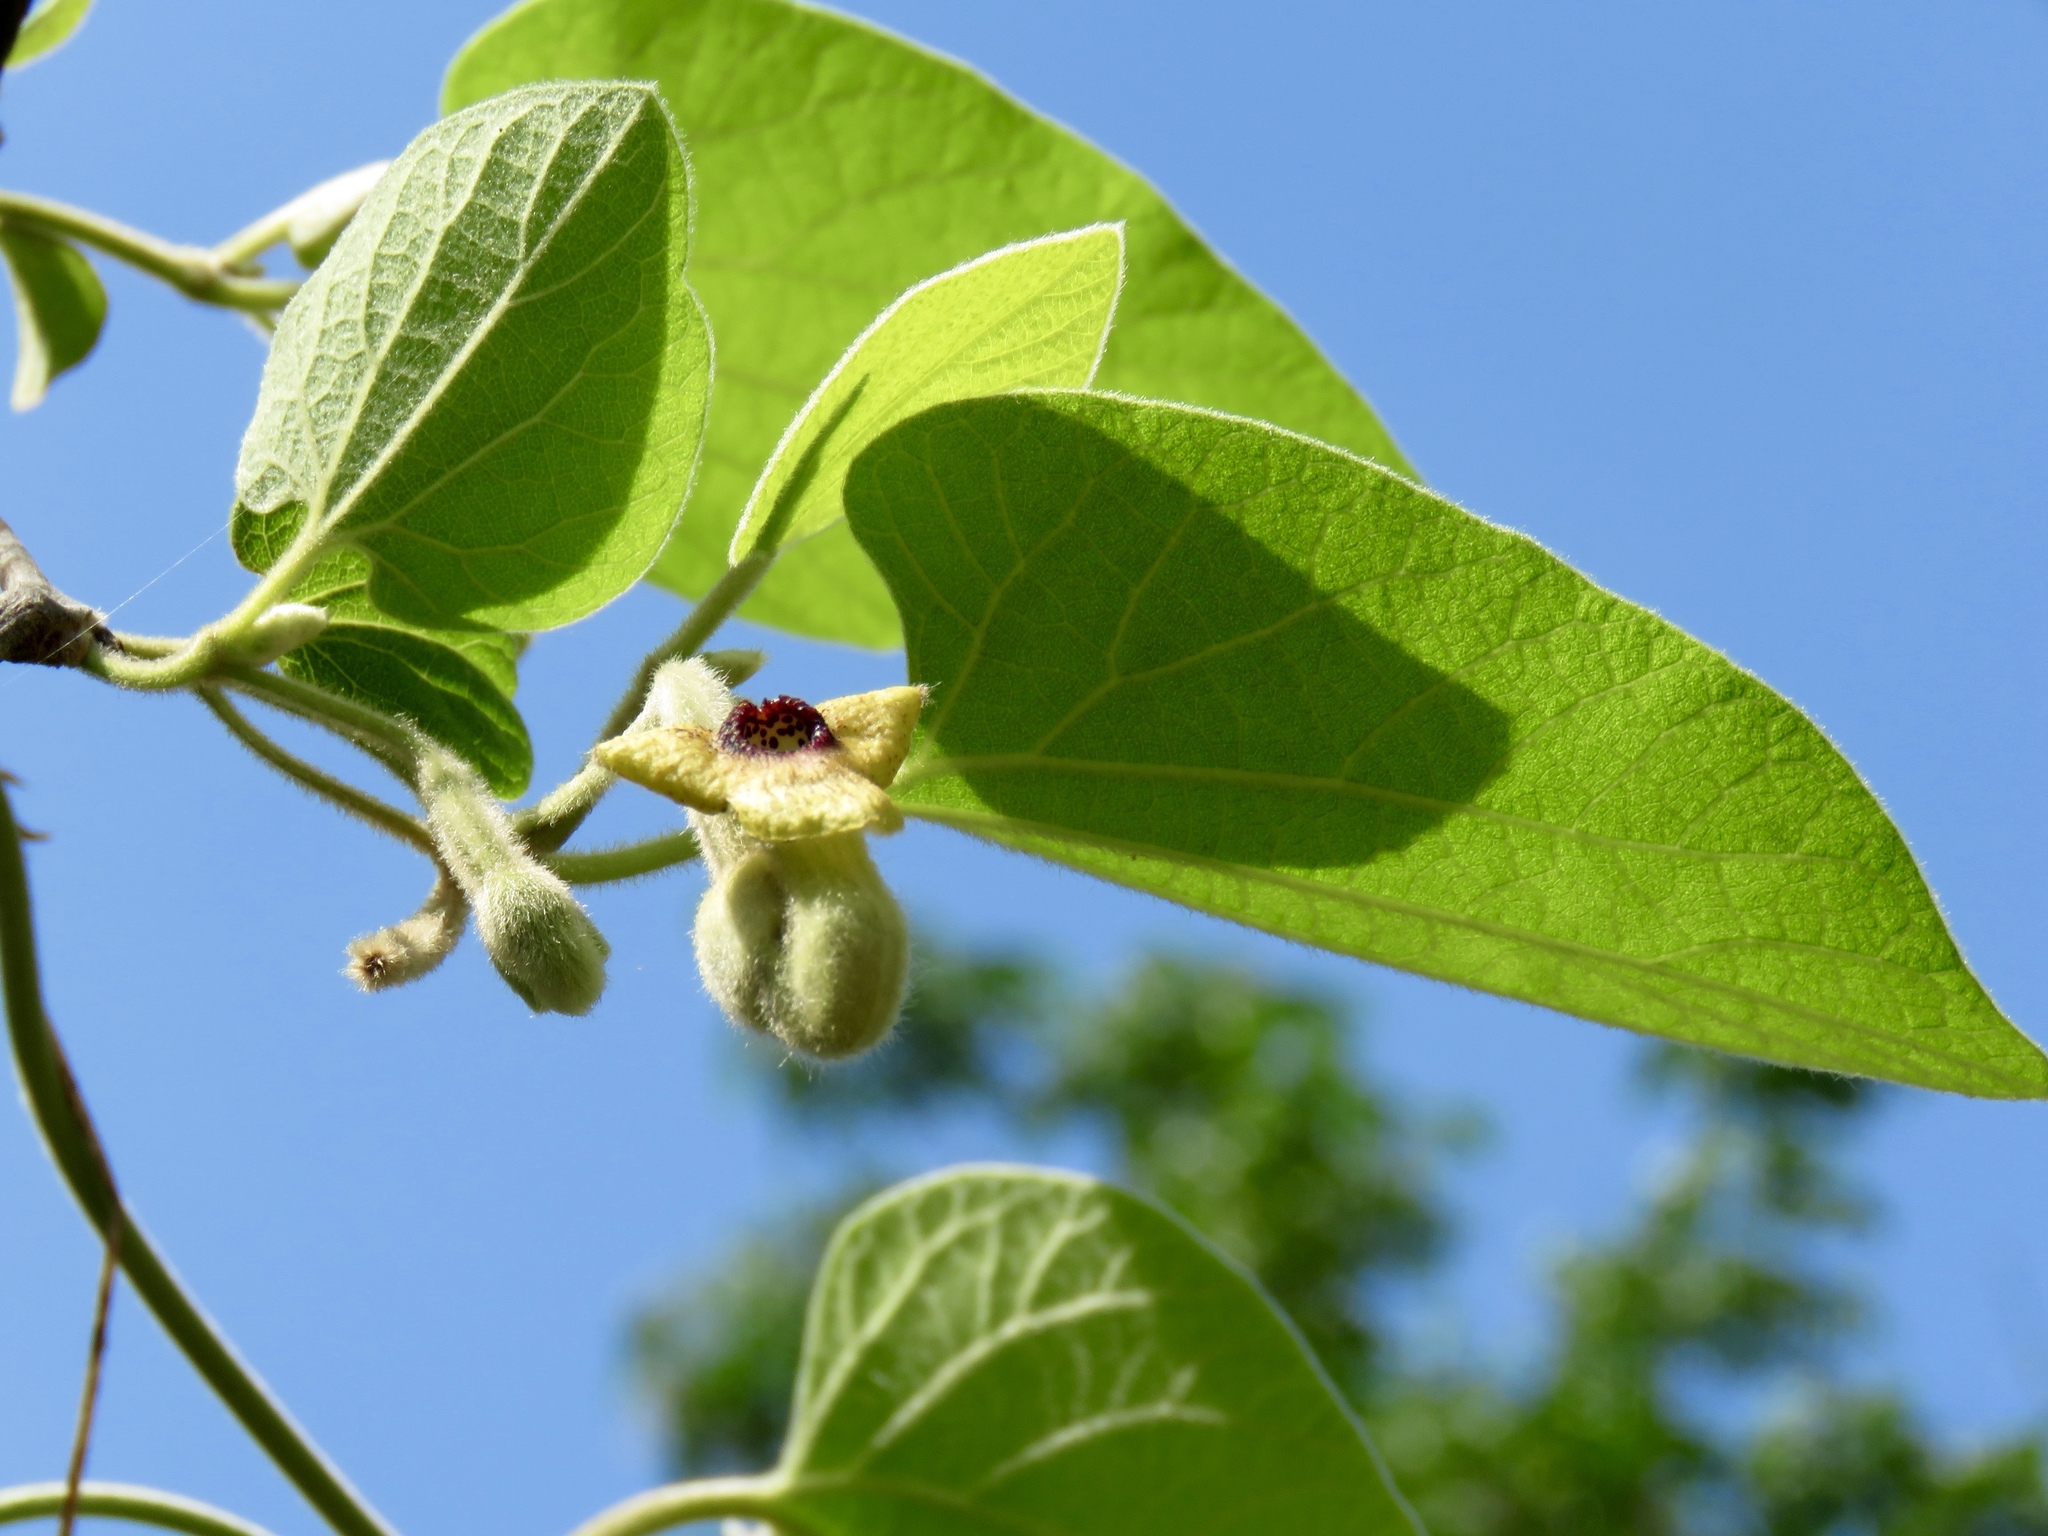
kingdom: Plantae
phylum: Tracheophyta
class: Magnoliopsida
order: Piperales
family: Aristolochiaceae
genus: Isotrema
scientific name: Isotrema tomentosum
